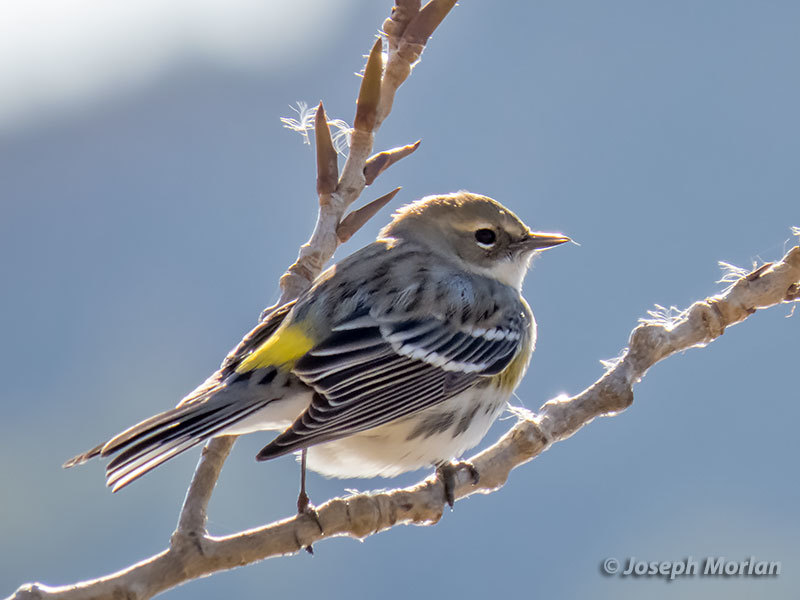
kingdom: Animalia
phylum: Chordata
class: Aves
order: Passeriformes
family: Parulidae
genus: Setophaga
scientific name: Setophaga coronata
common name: Myrtle warbler
